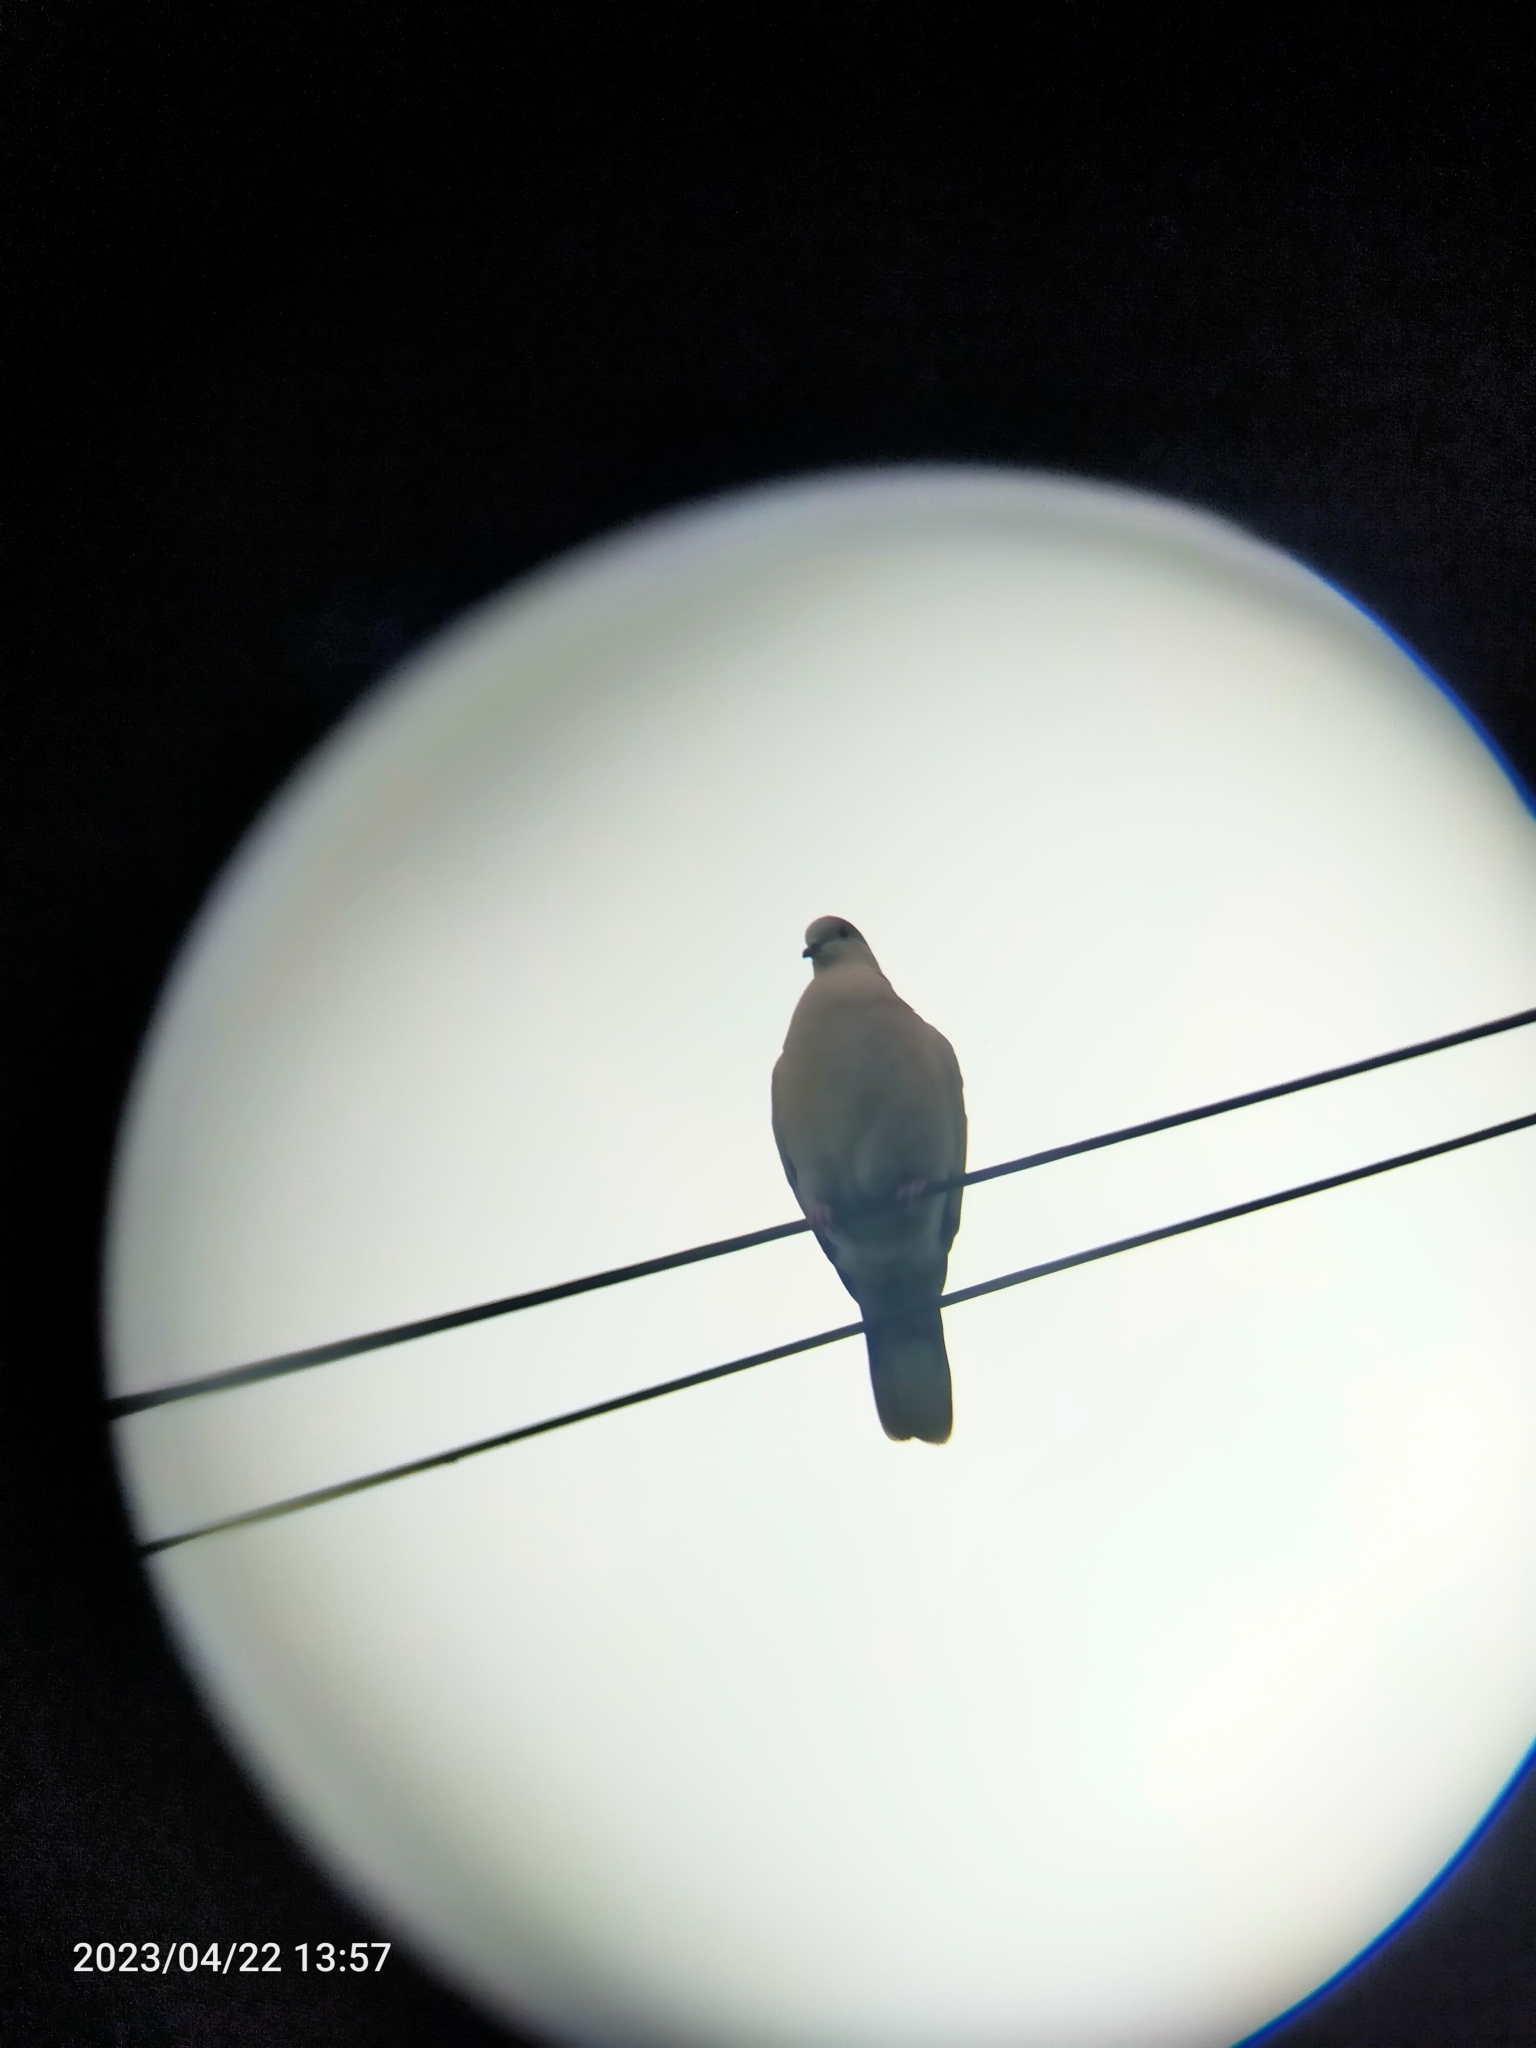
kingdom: Animalia
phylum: Chordata
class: Aves
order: Columbiformes
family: Columbidae
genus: Streptopelia
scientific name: Streptopelia decaocto
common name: Eurasian collared dove
